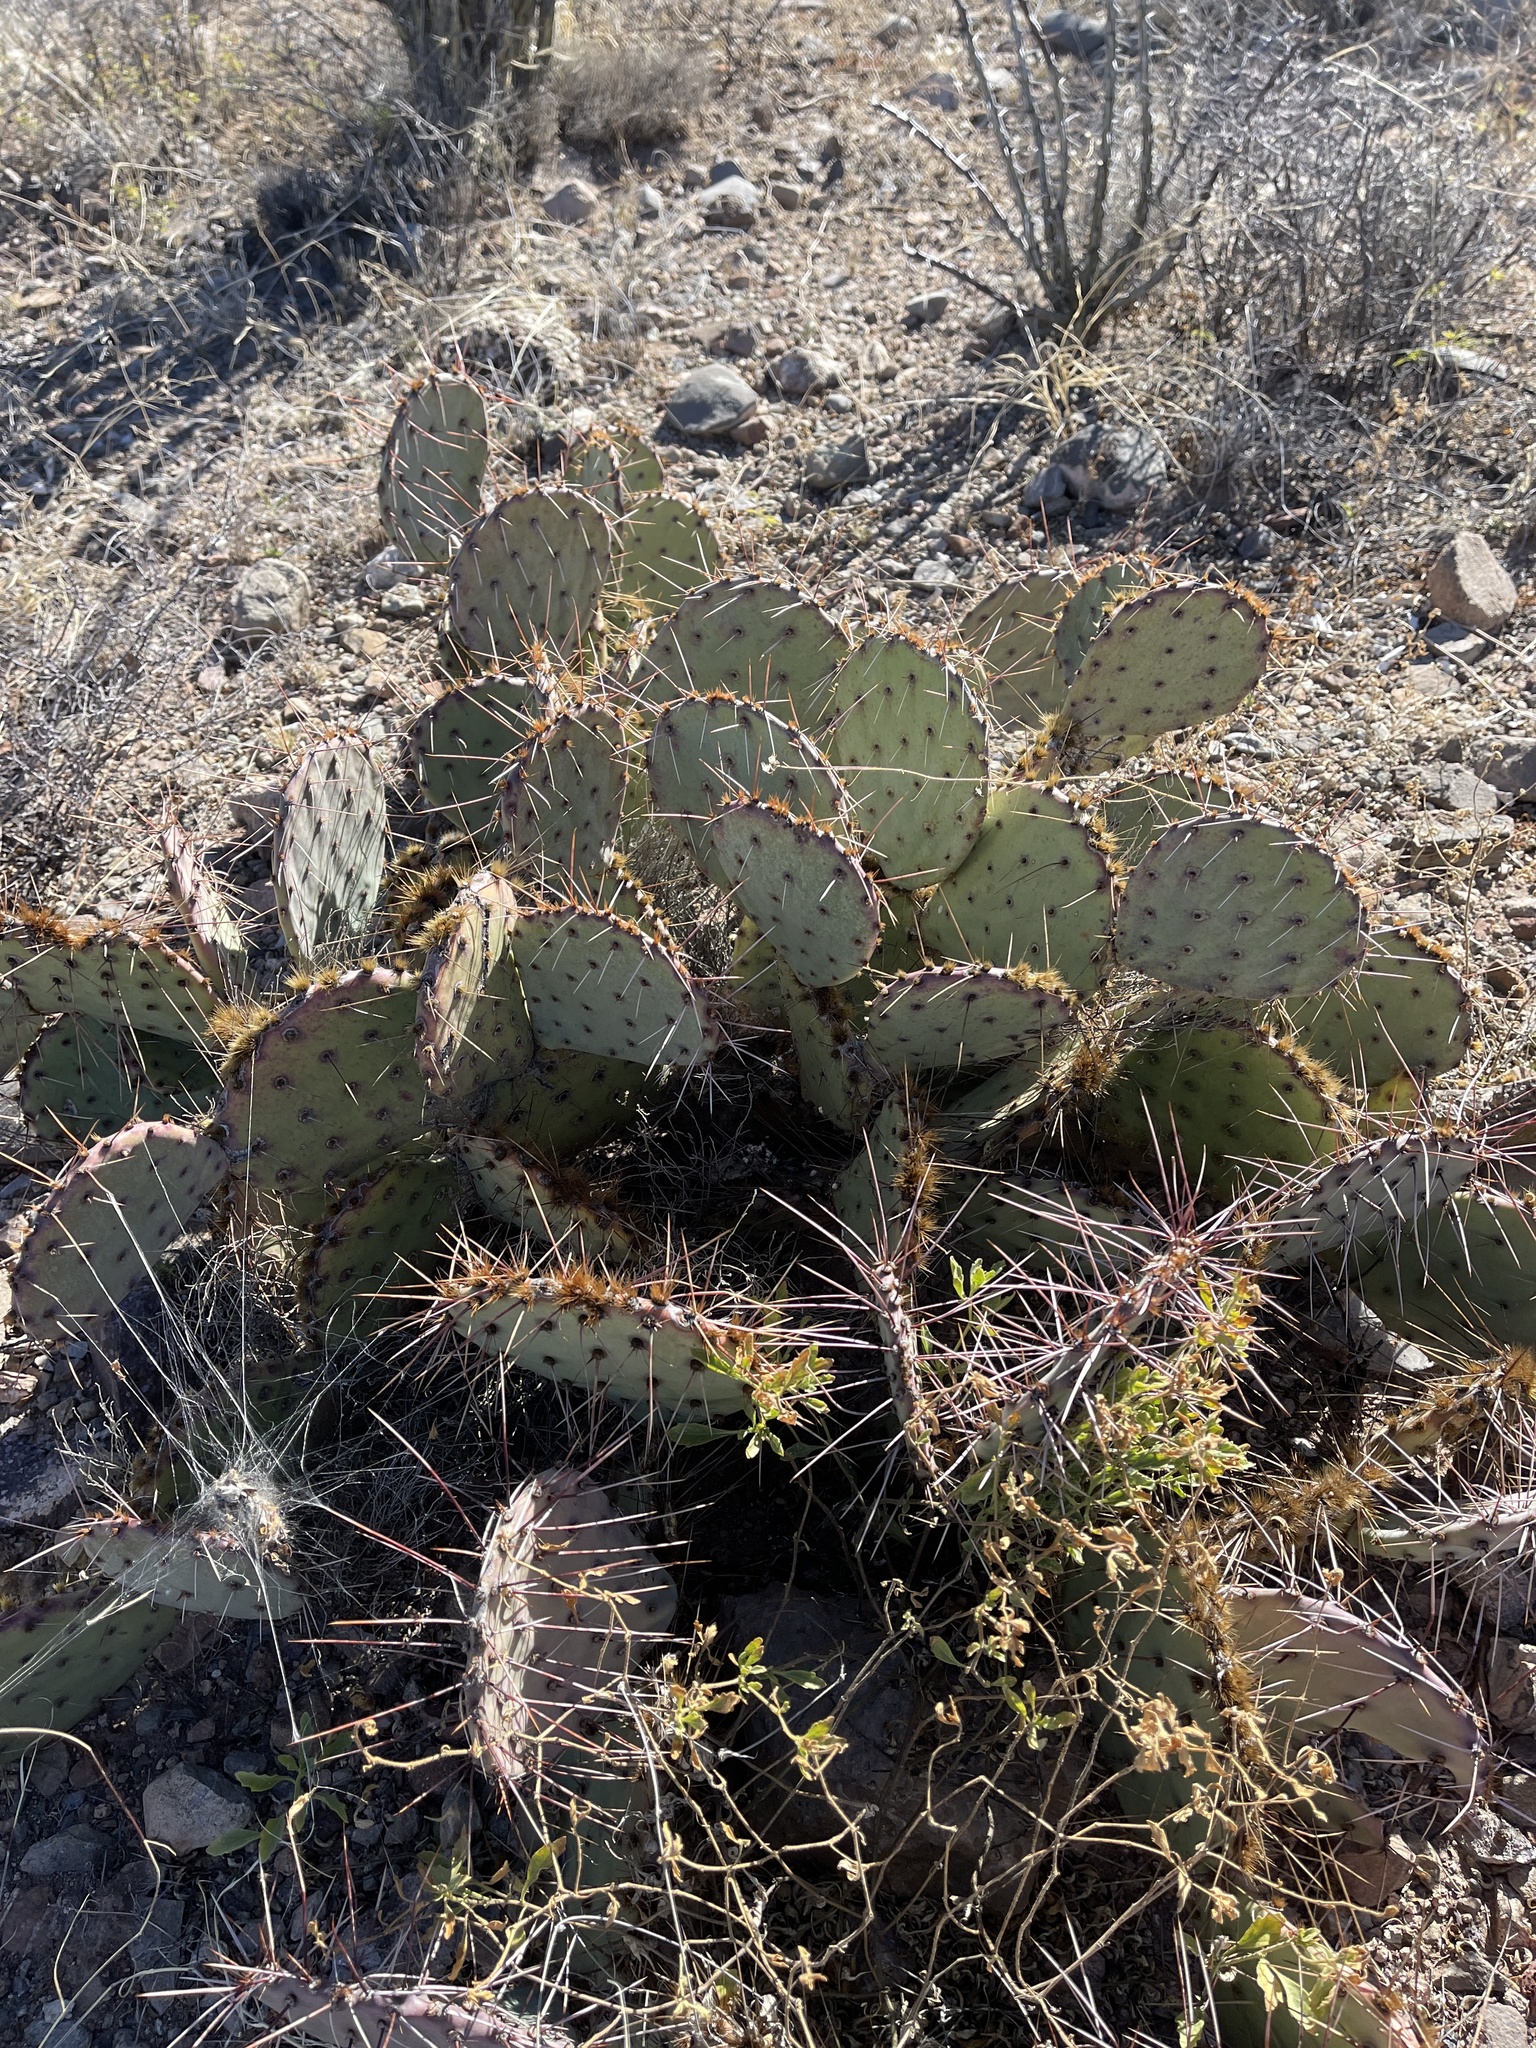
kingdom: Plantae
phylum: Tracheophyta
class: Magnoliopsida
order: Caryophyllales
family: Cactaceae
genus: Opuntia
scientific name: Opuntia phaeacantha
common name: New mexico prickly-pear
